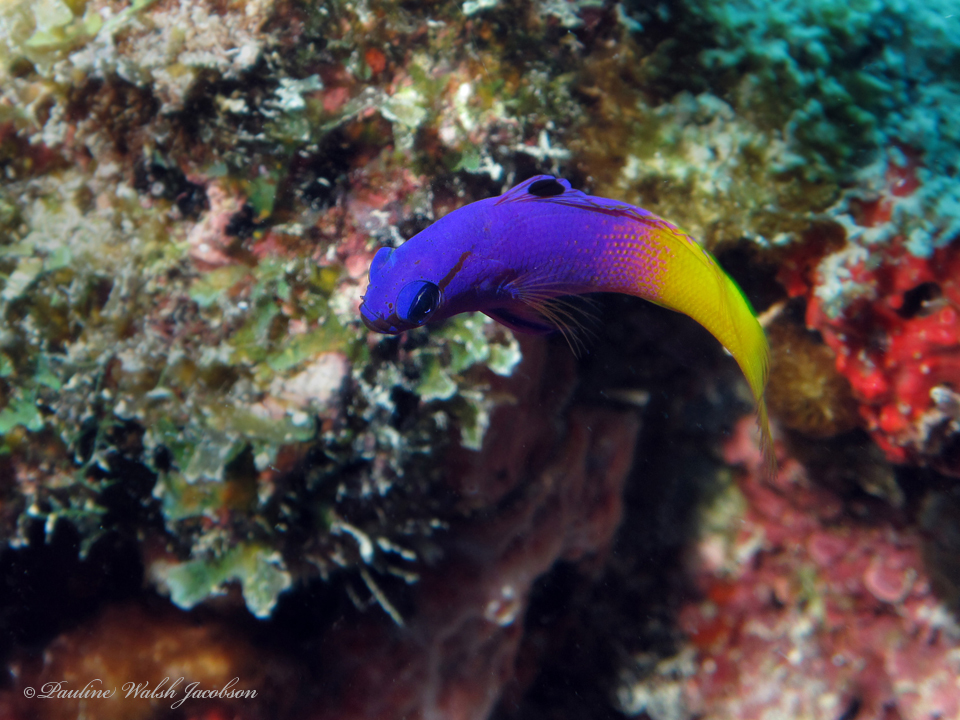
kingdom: Animalia
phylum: Chordata
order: Perciformes
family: Grammatidae
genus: Gramma
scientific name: Gramma loreto
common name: Fairy basslet
